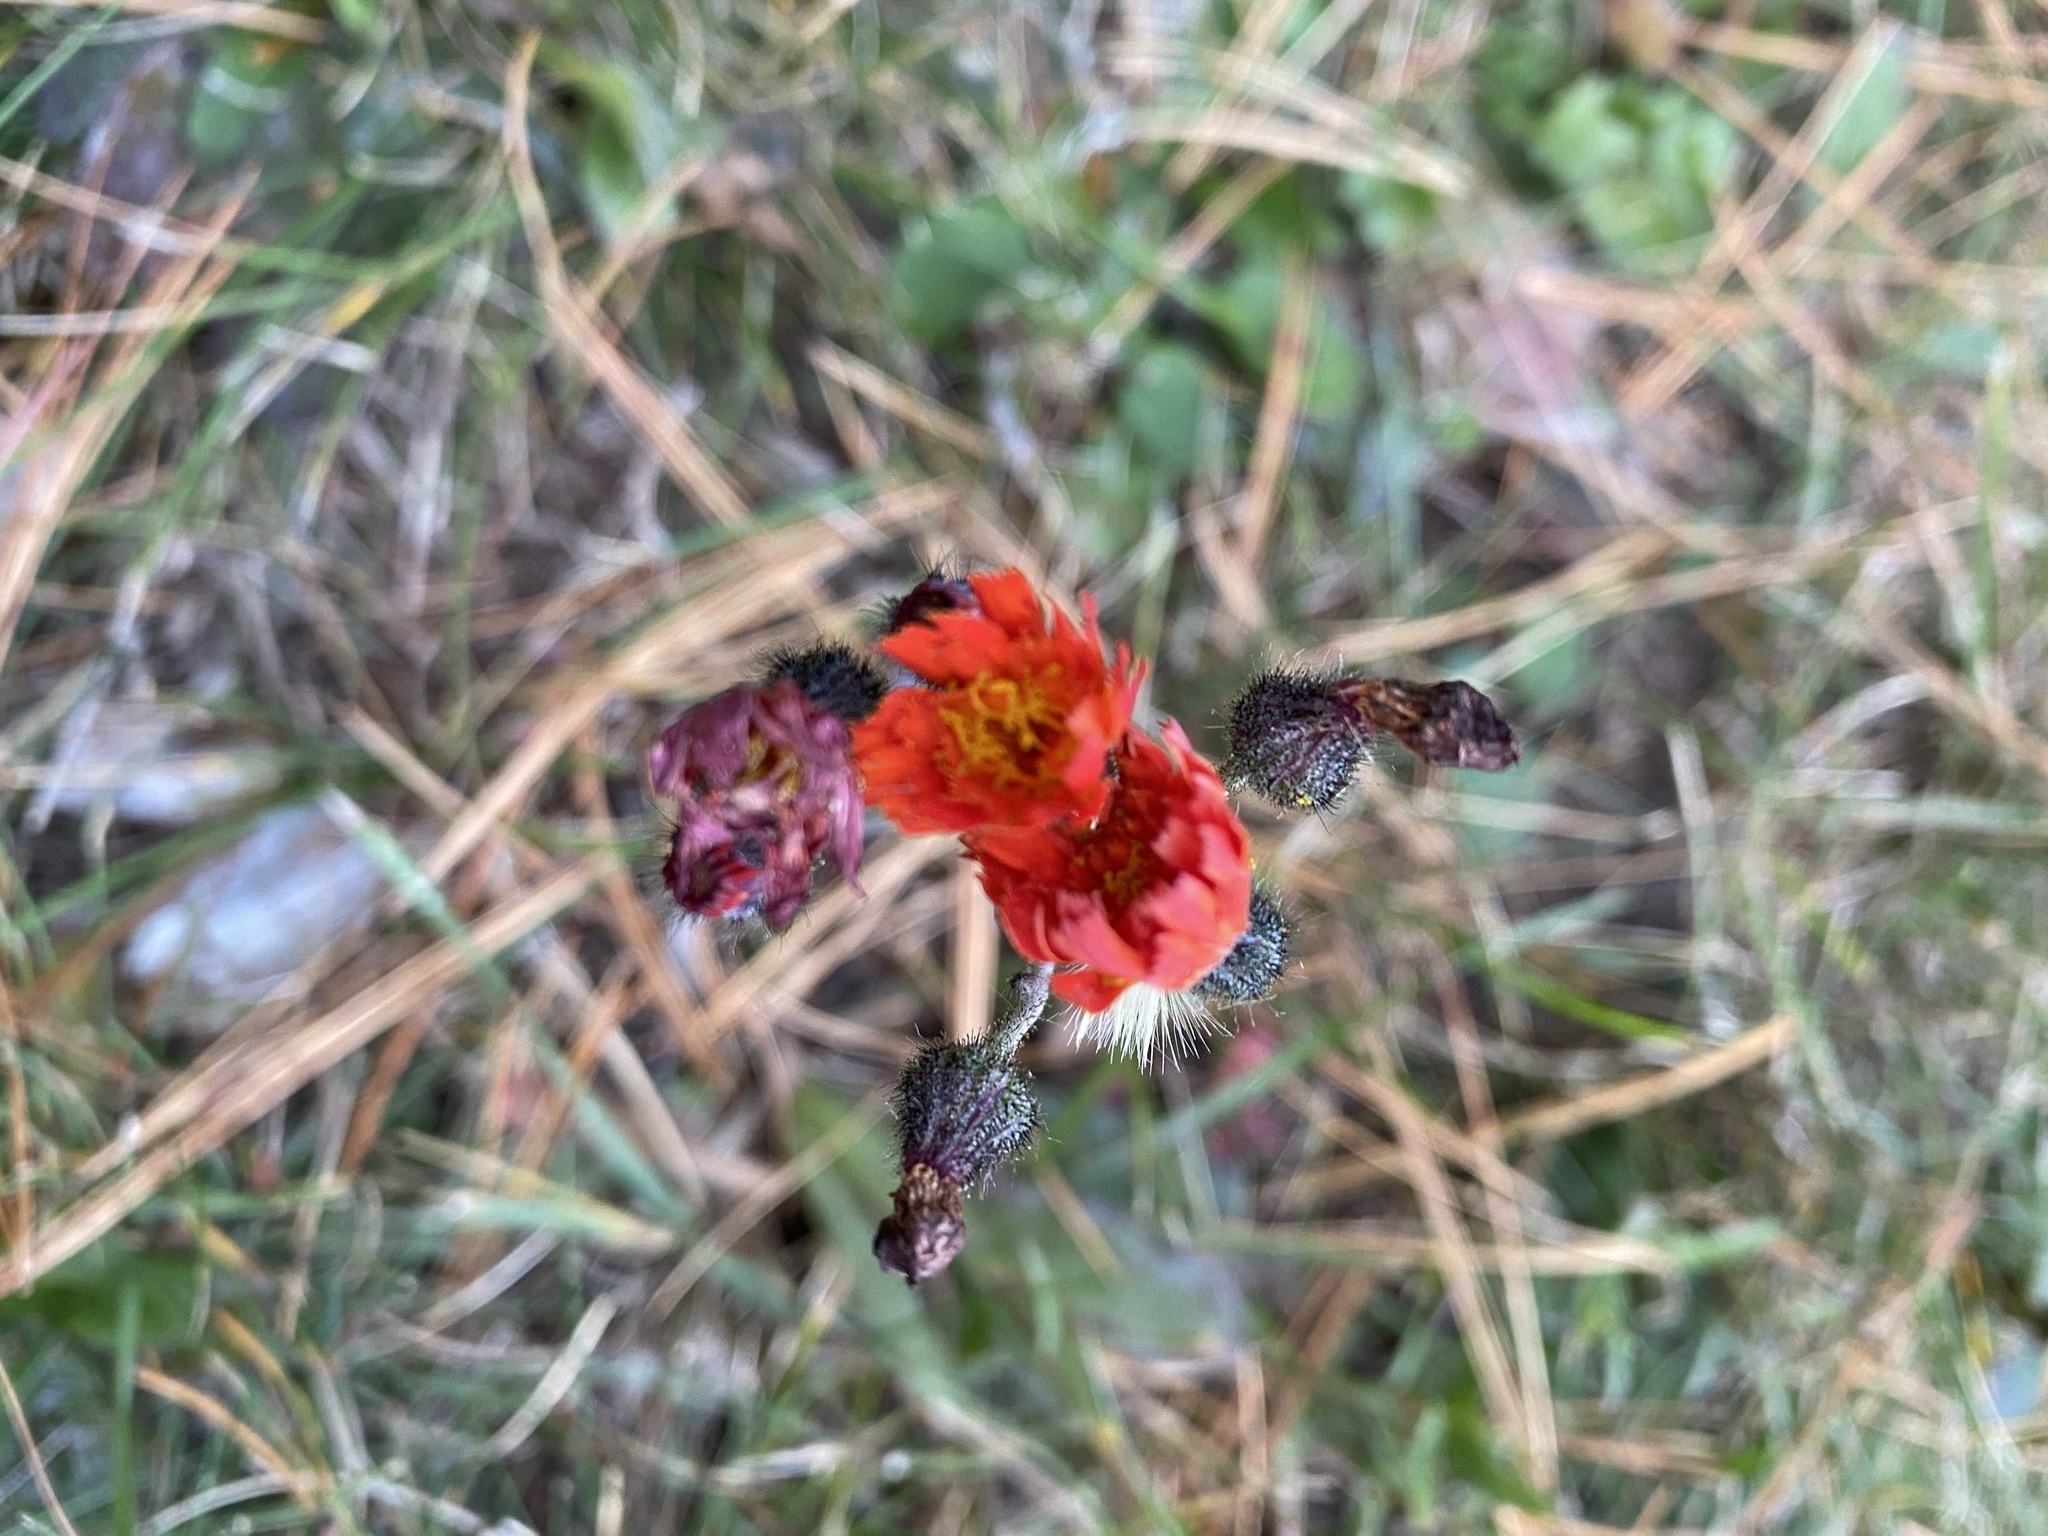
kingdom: Plantae
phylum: Tracheophyta
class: Magnoliopsida
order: Asterales
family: Asteraceae
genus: Pilosella
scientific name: Pilosella aurantiaca
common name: Fox-and-cubs
